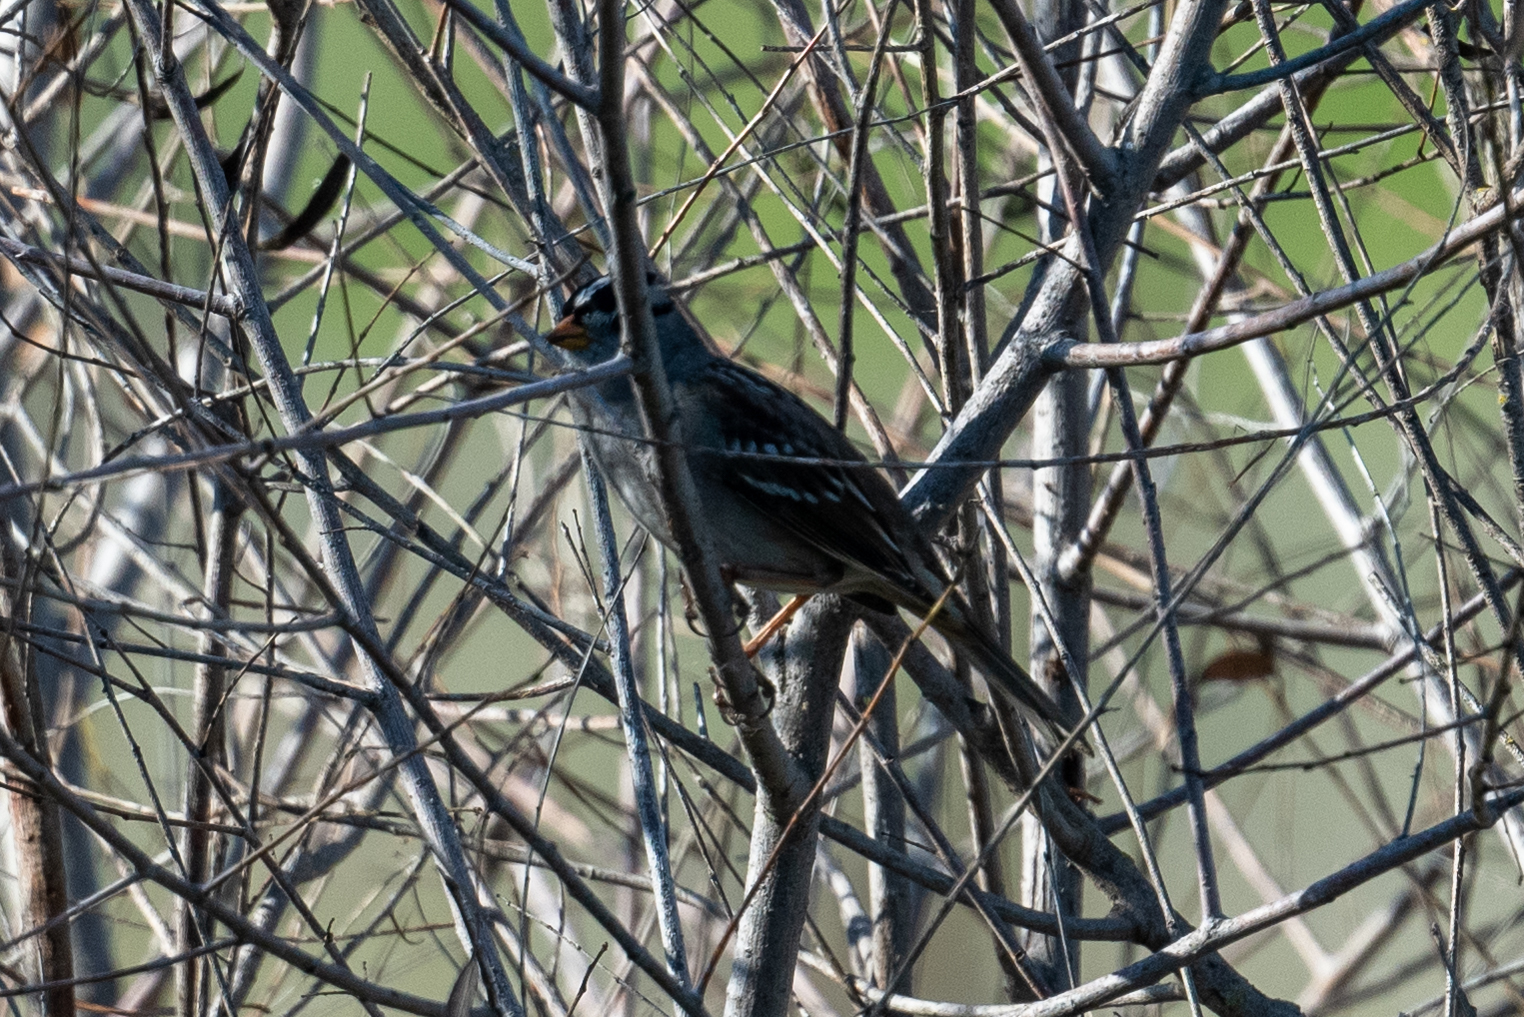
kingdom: Animalia
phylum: Chordata
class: Aves
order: Passeriformes
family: Passerellidae
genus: Zonotrichia
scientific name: Zonotrichia leucophrys
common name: White-crowned sparrow
